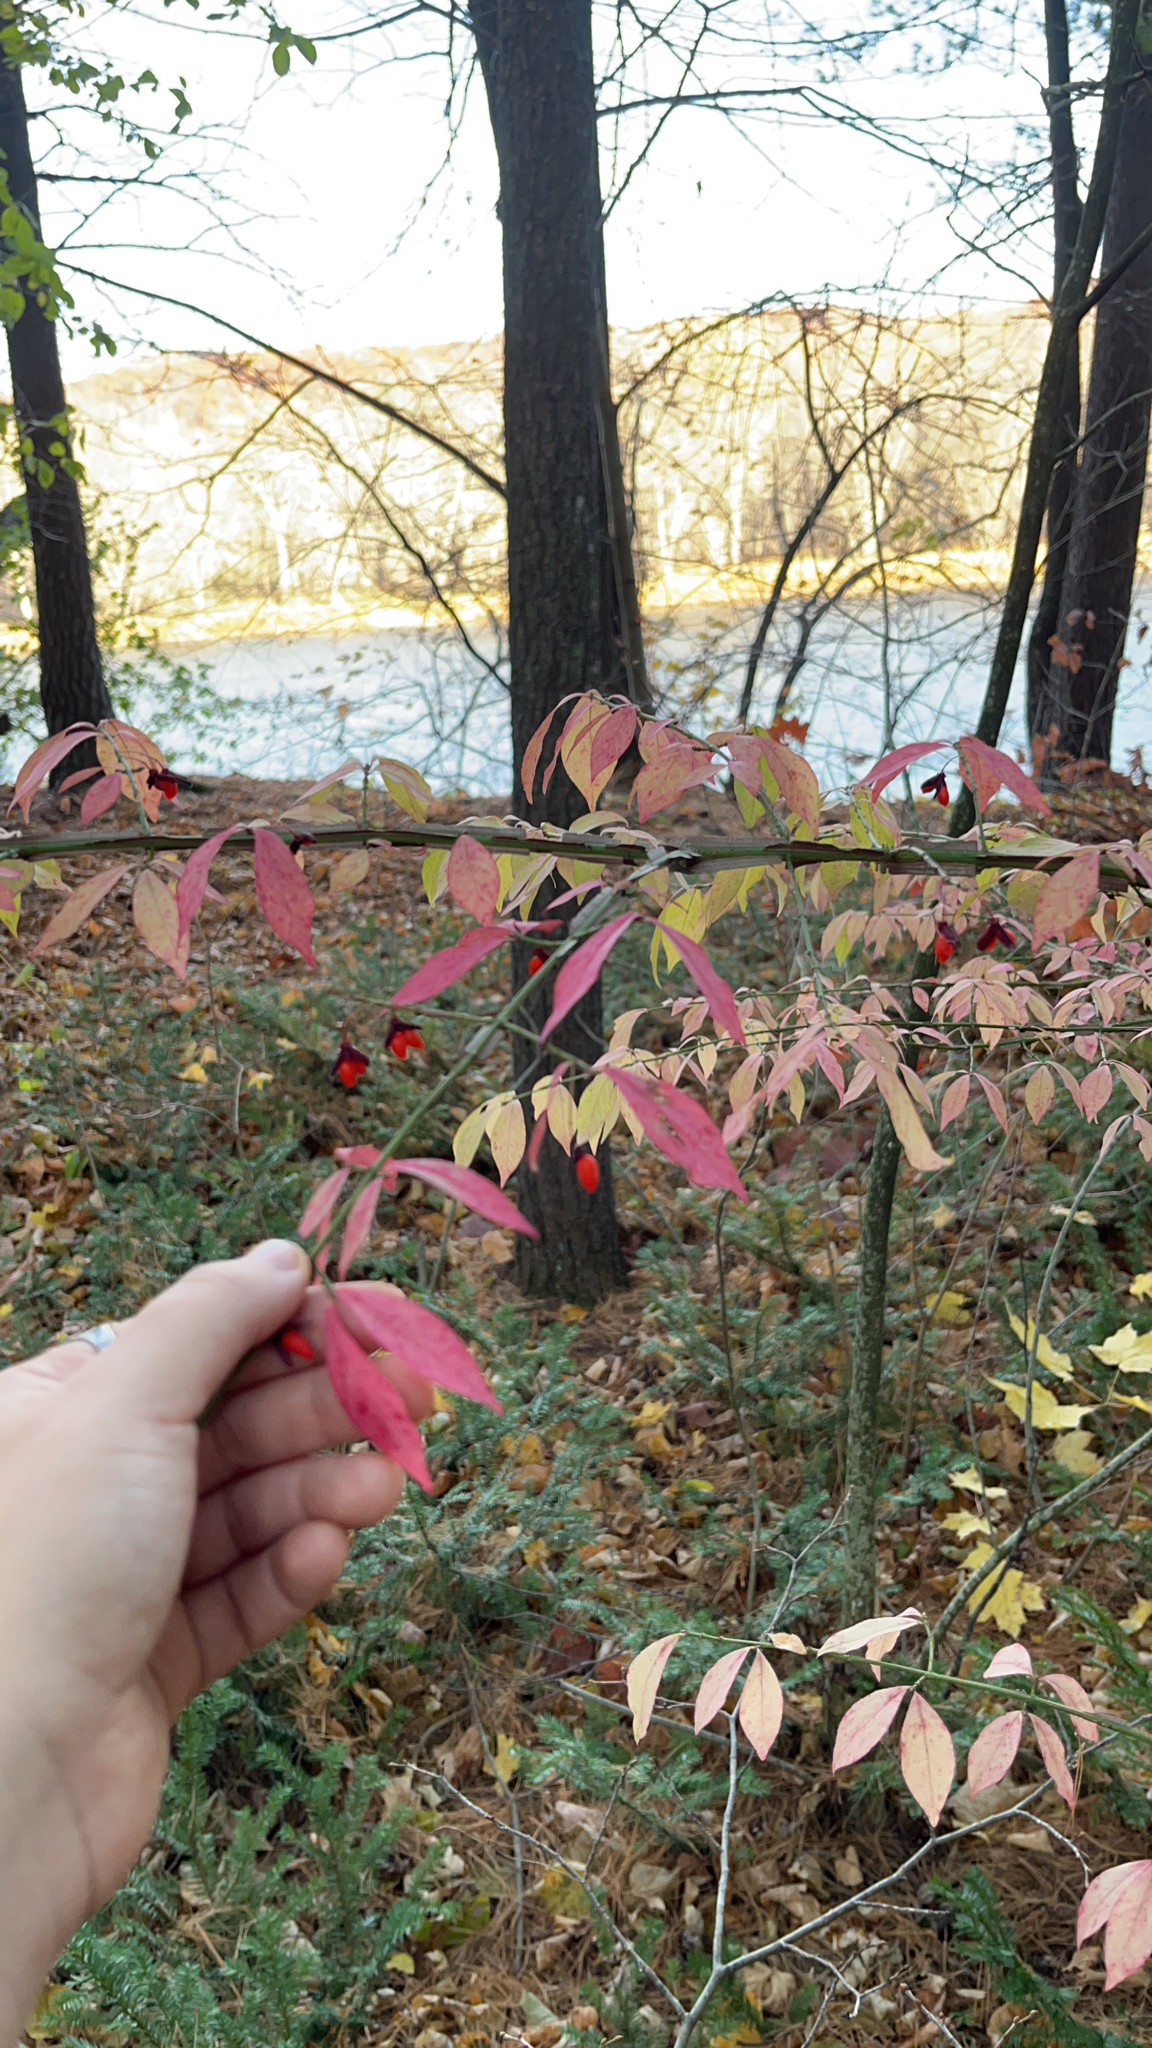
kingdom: Plantae
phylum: Tracheophyta
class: Magnoliopsida
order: Celastrales
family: Celastraceae
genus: Euonymus
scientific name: Euonymus alatus
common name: Winged euonymus
